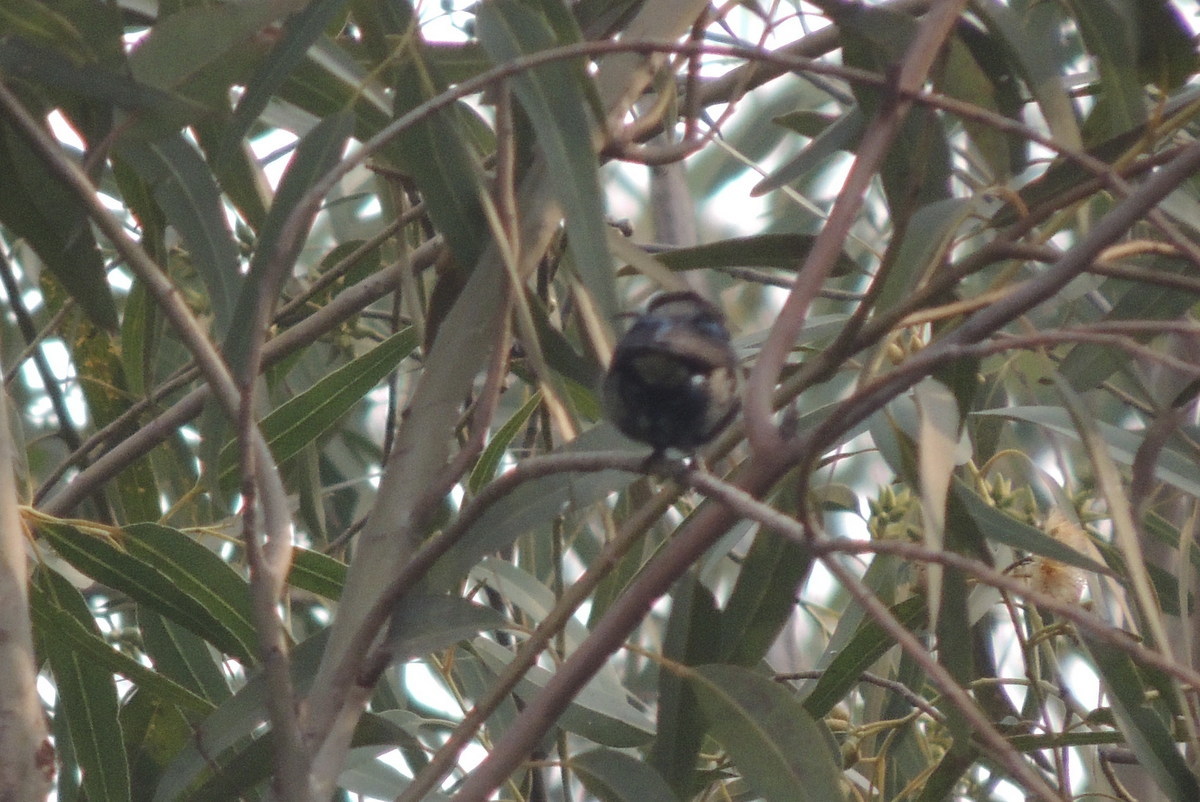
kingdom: Animalia
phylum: Chordata
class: Aves
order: Passeriformes
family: Nectariniidae
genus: Cinnyris
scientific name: Cinnyris asiaticus
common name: Purple sunbird
